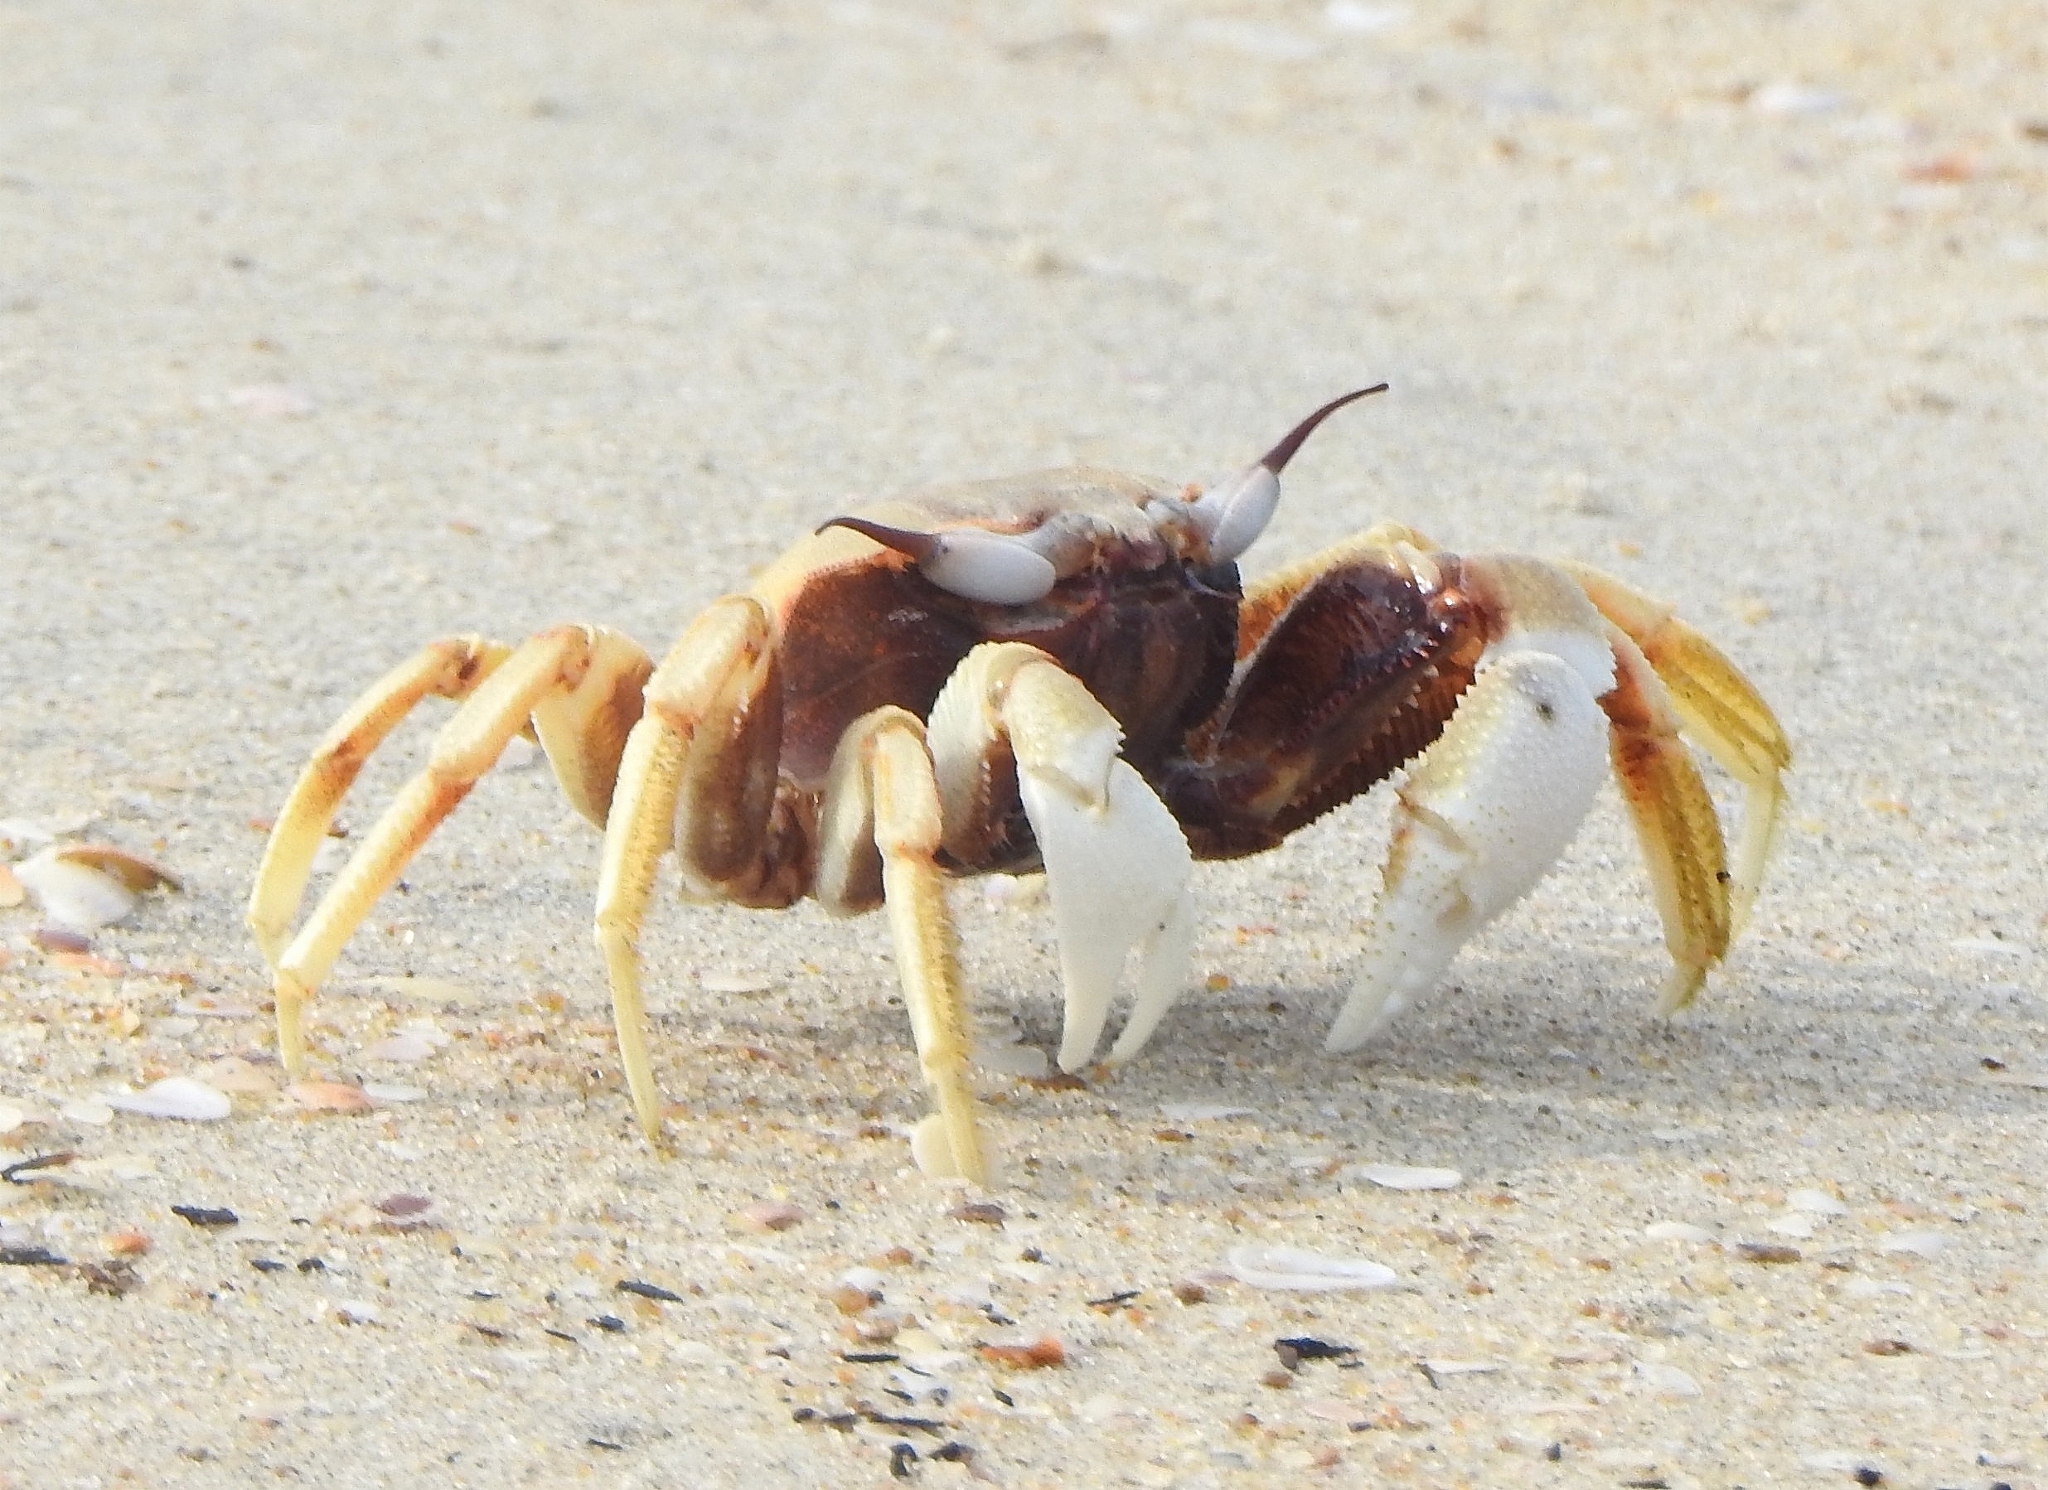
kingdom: Animalia
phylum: Arthropoda
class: Malacostraca
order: Decapoda
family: Ocypodidae
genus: Ocypode
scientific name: Ocypode ceratophthalmus
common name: Indo-pacific ghost crab
